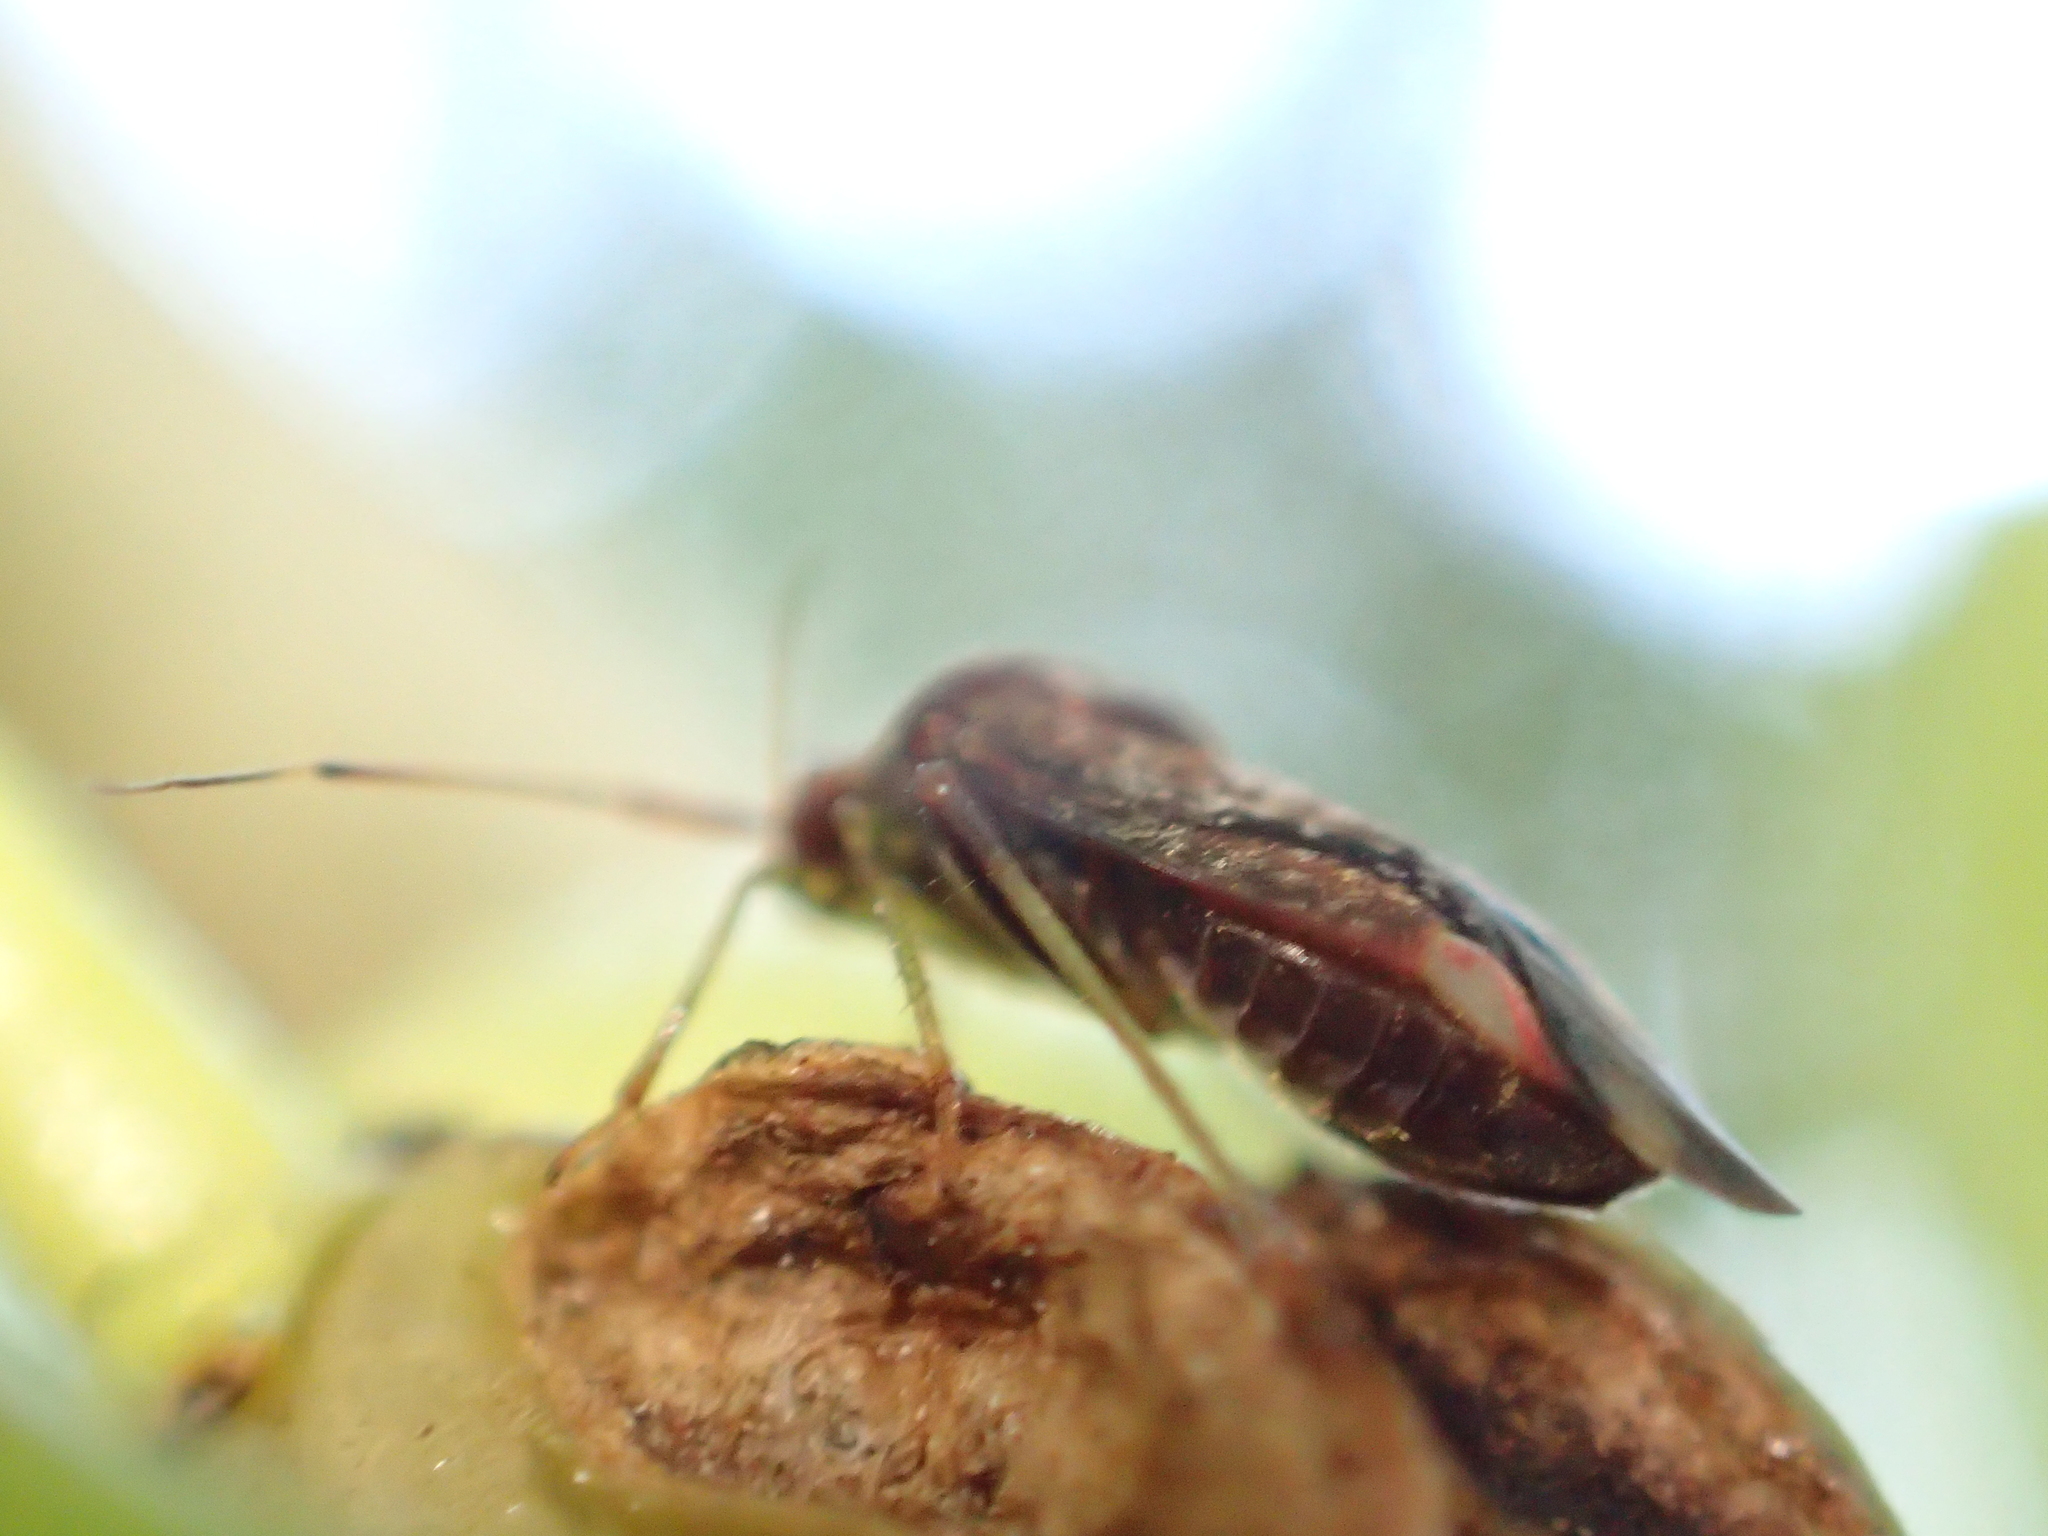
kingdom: Animalia
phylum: Arthropoda
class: Insecta
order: Hemiptera
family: Miridae
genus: Chinamiris
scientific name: Chinamiris indeclivis
